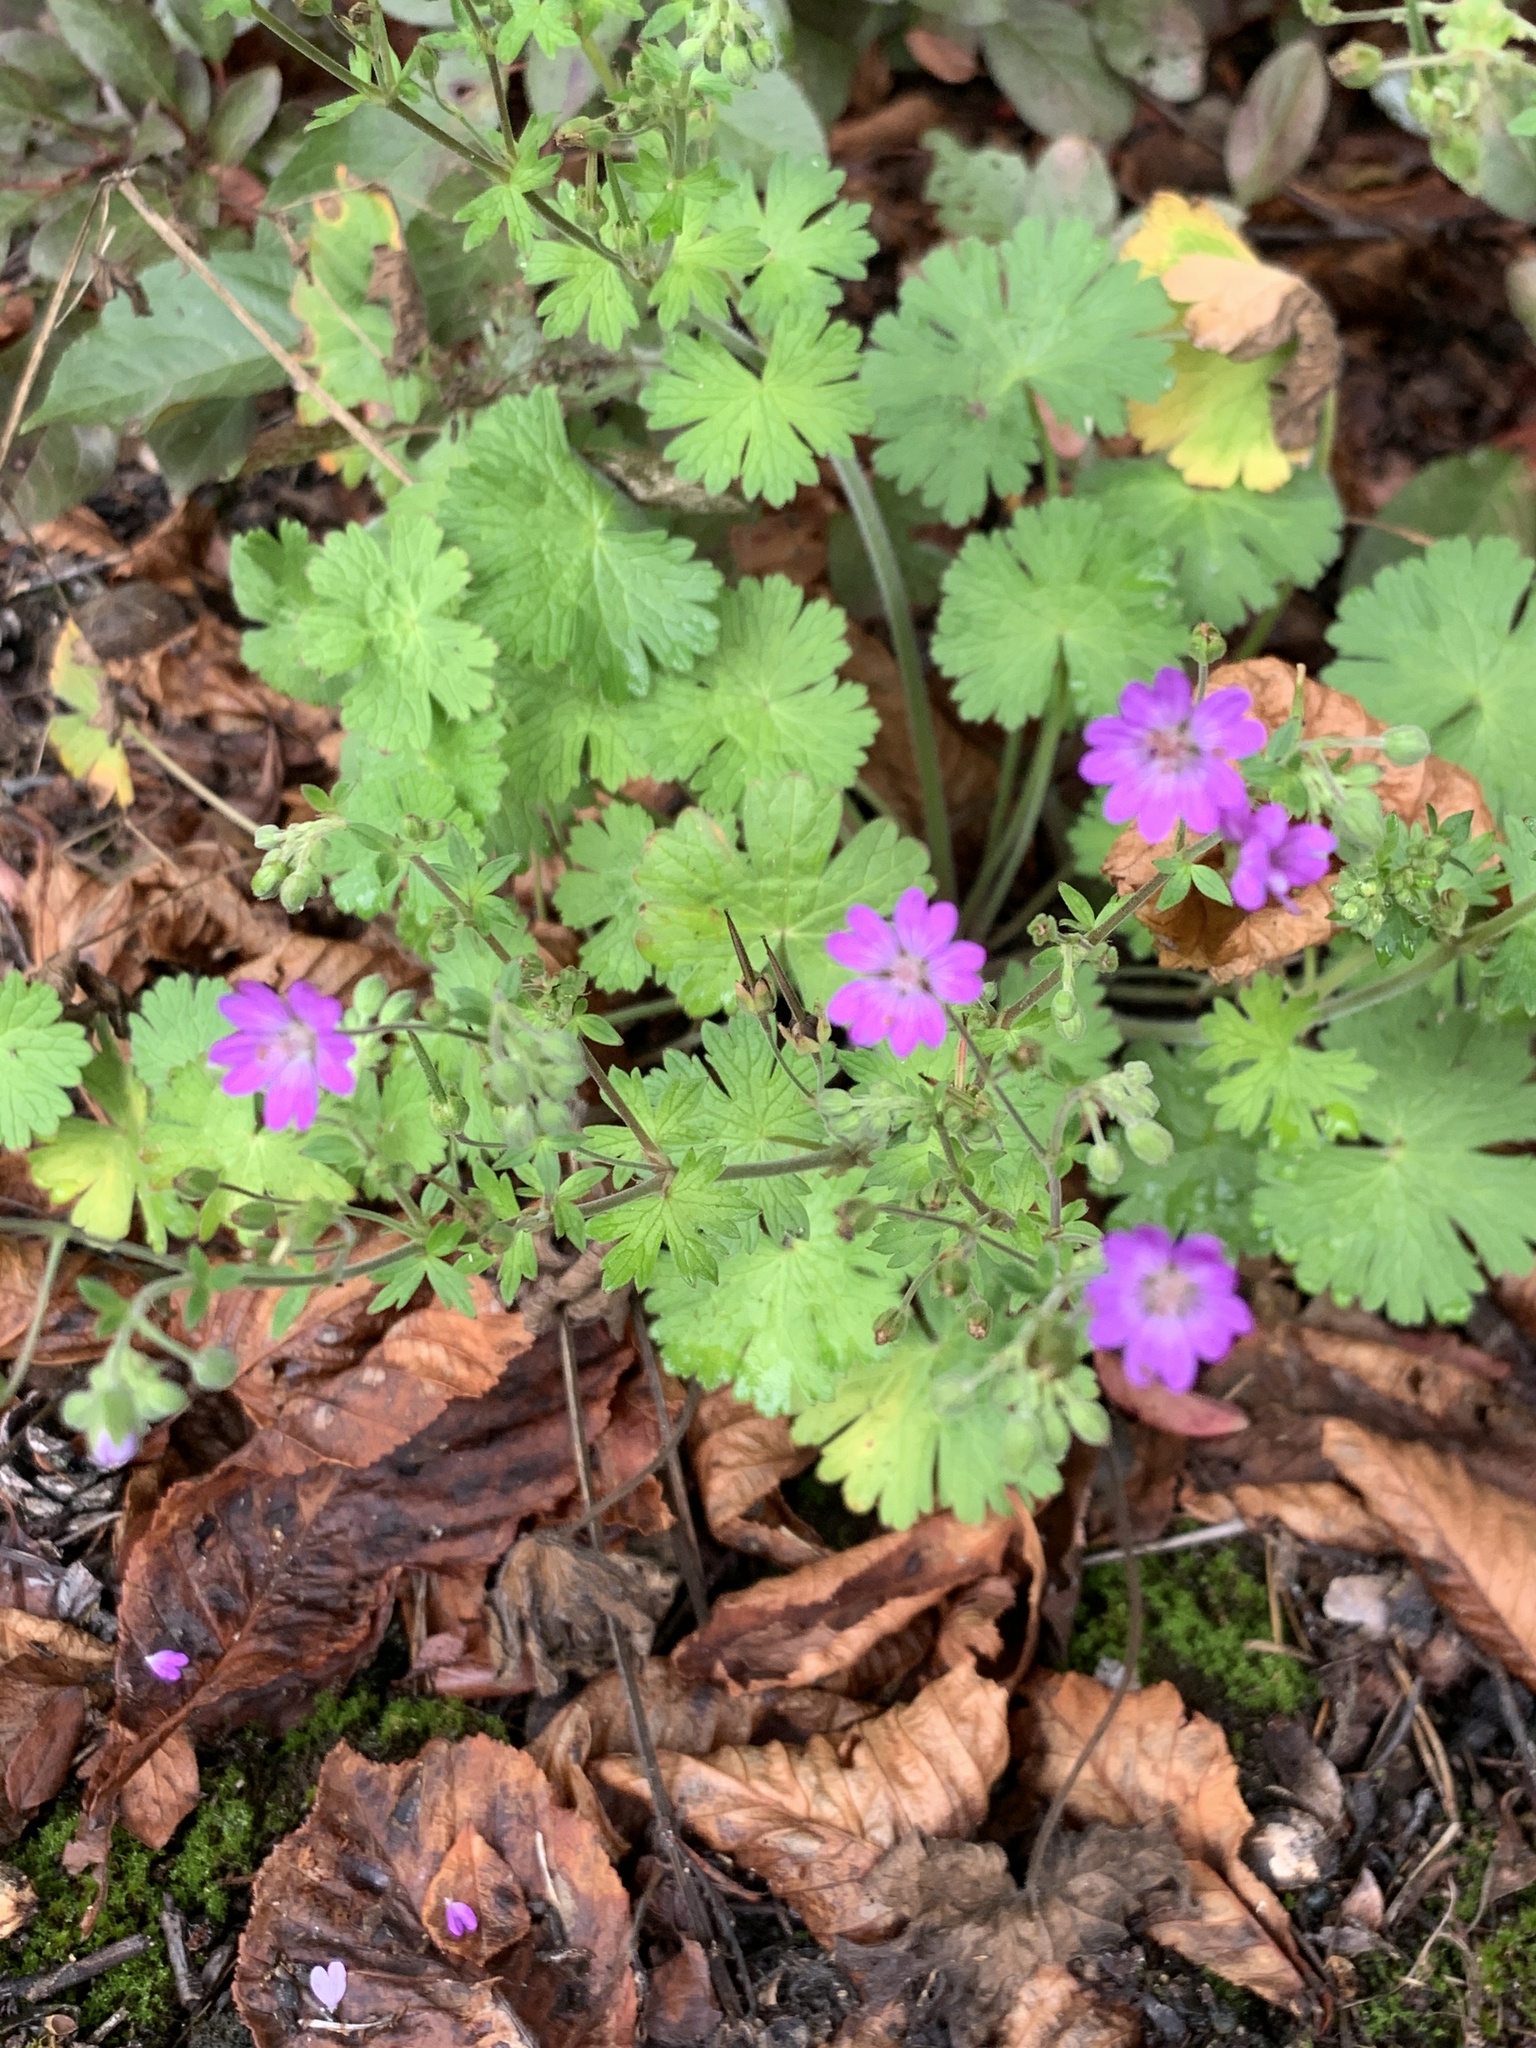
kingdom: Plantae
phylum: Tracheophyta
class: Magnoliopsida
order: Geraniales
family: Geraniaceae
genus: Geranium
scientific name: Geranium pyrenaicum
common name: Hedgerow crane's-bill
